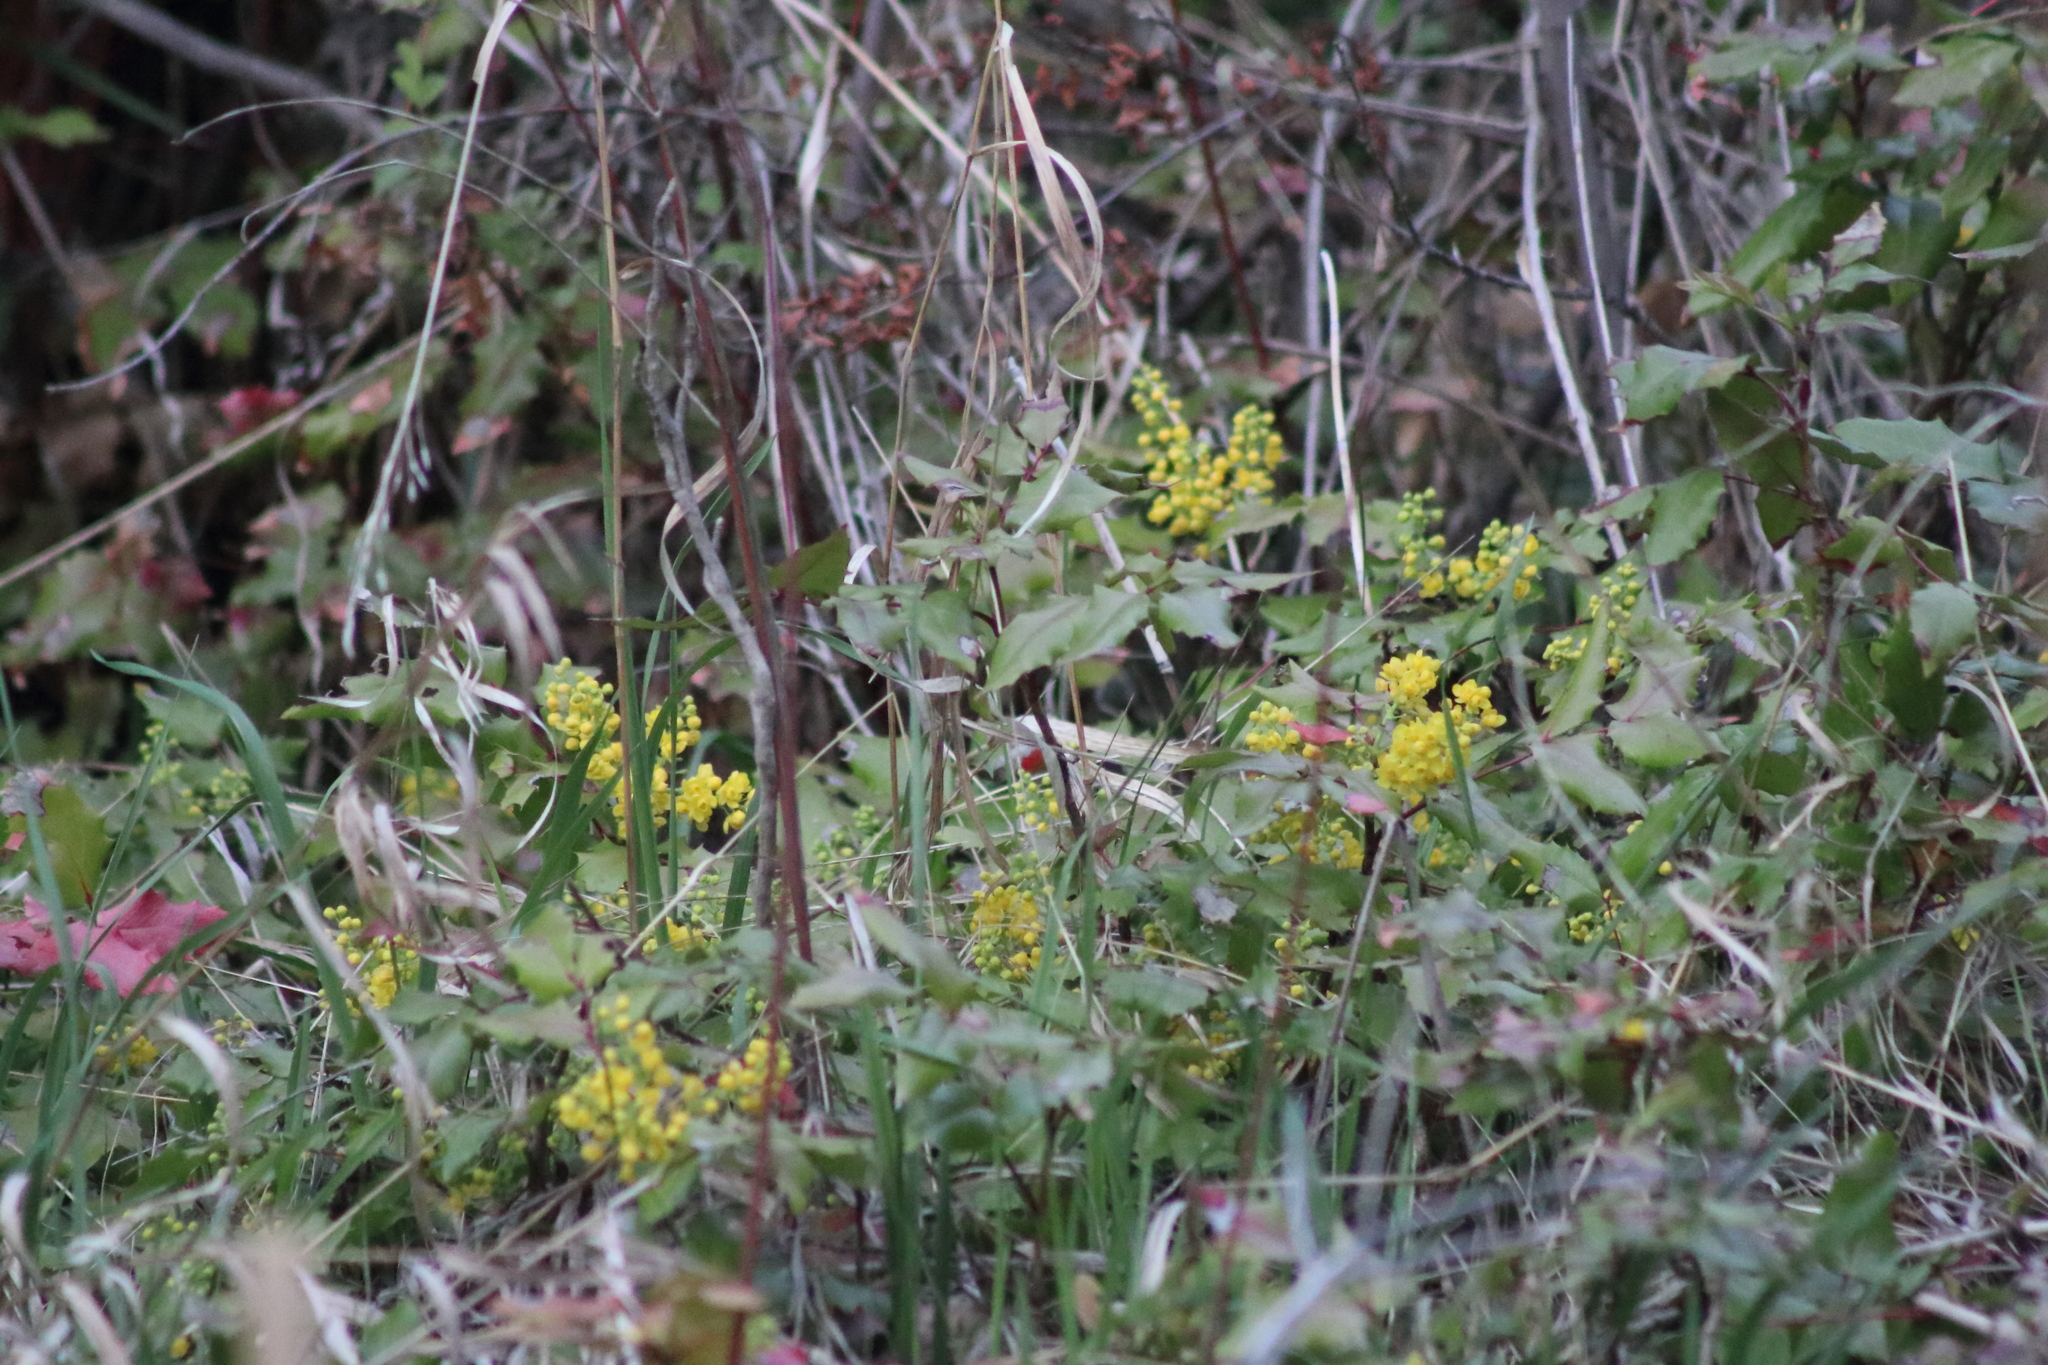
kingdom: Plantae
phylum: Tracheophyta
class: Magnoliopsida
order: Ranunculales
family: Berberidaceae
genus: Mahonia
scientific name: Mahonia aquifolium
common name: Oregon-grape
